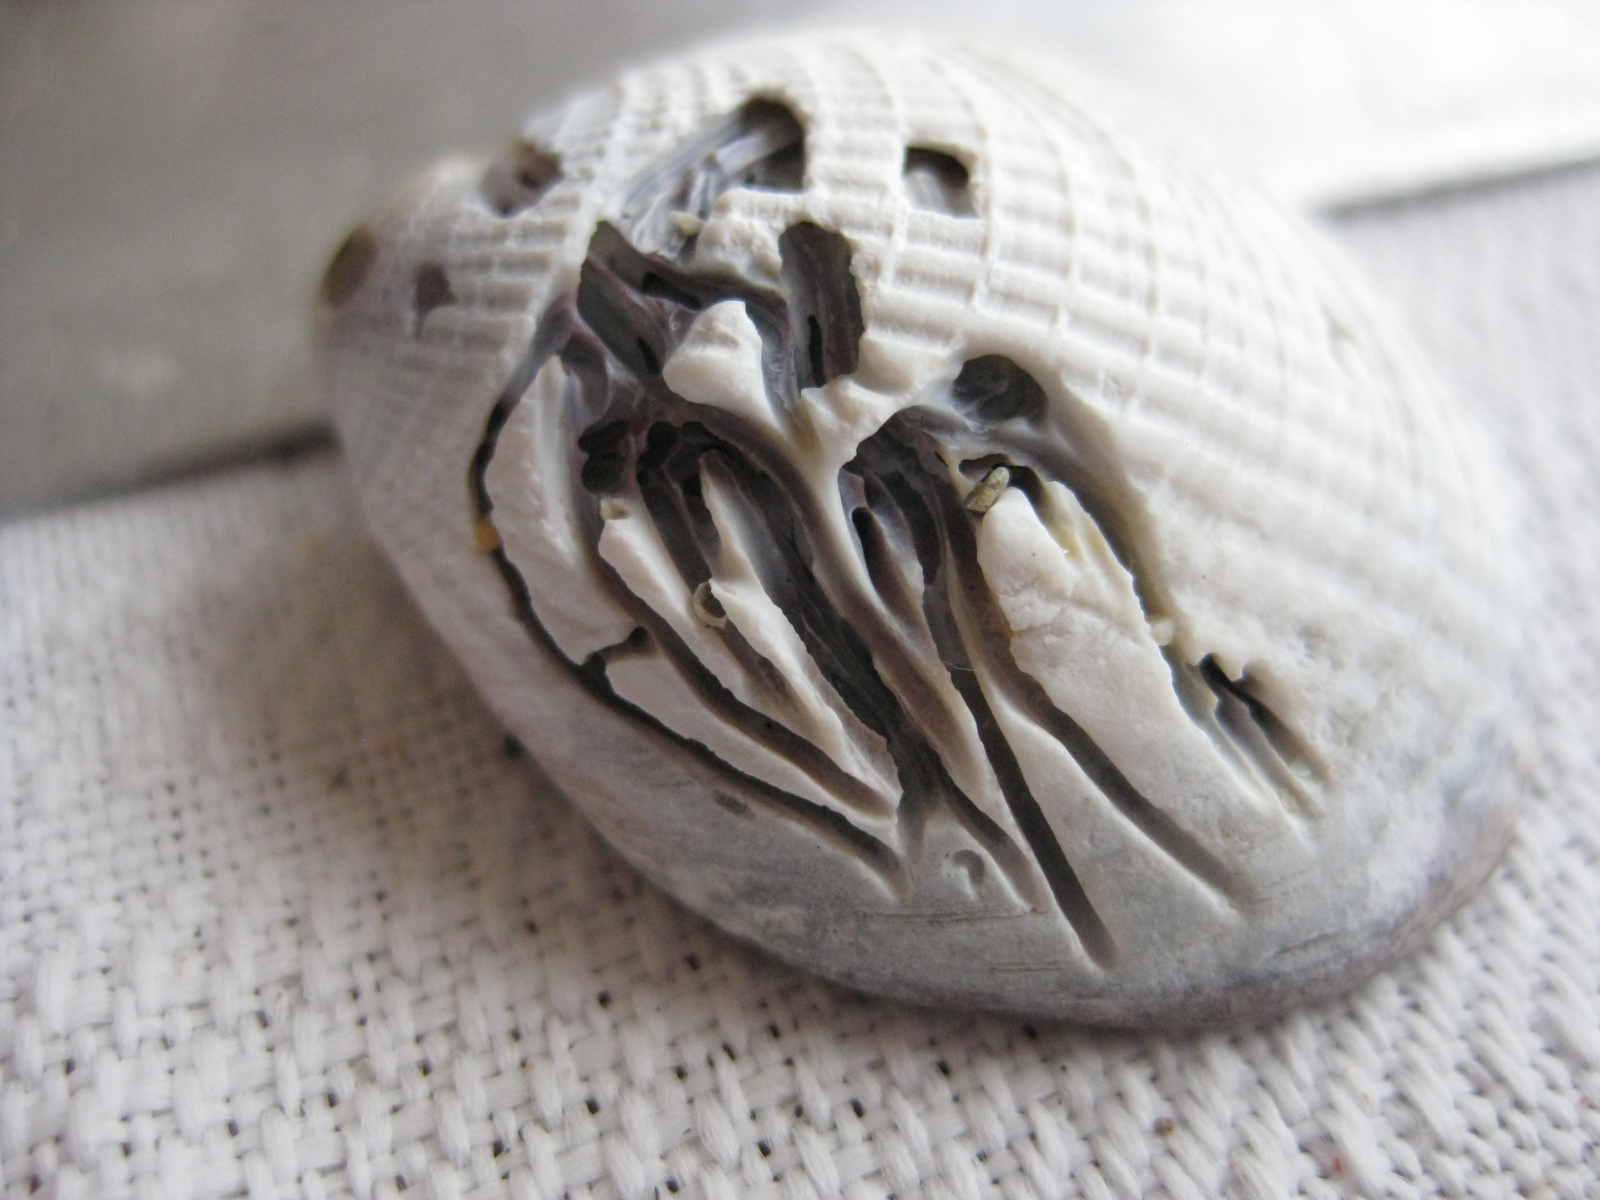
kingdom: Animalia
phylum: Annelida
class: Polychaeta
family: Spionidae
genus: Boccardia
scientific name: Boccardia acus
